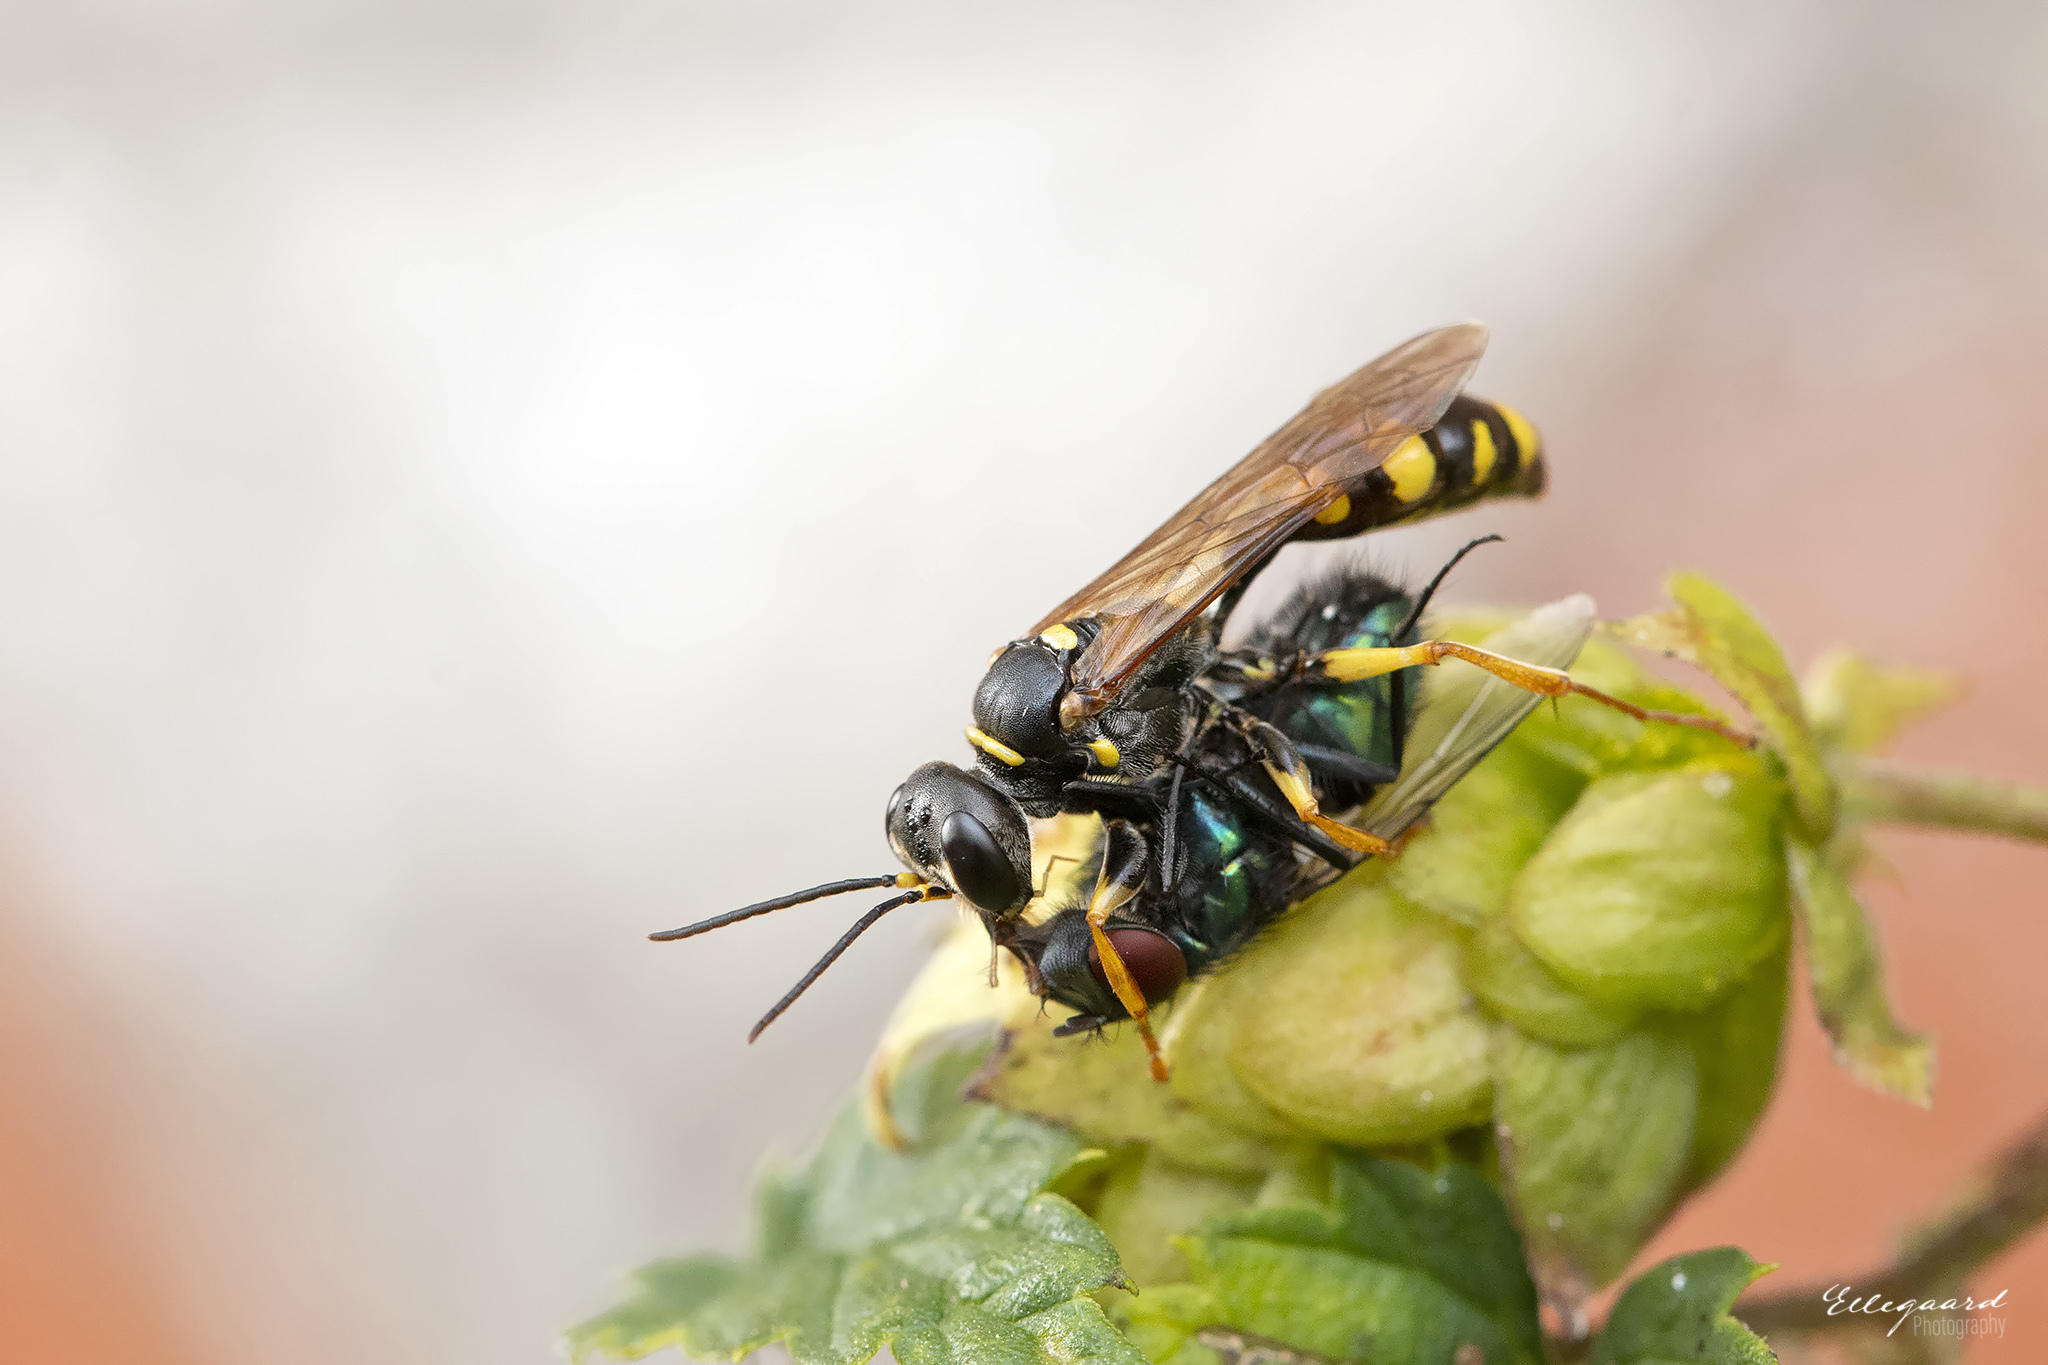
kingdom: Animalia
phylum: Arthropoda
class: Insecta
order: Hymenoptera
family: Crabronidae
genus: Mellinus
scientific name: Mellinus arvensis
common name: Field digger wasp
